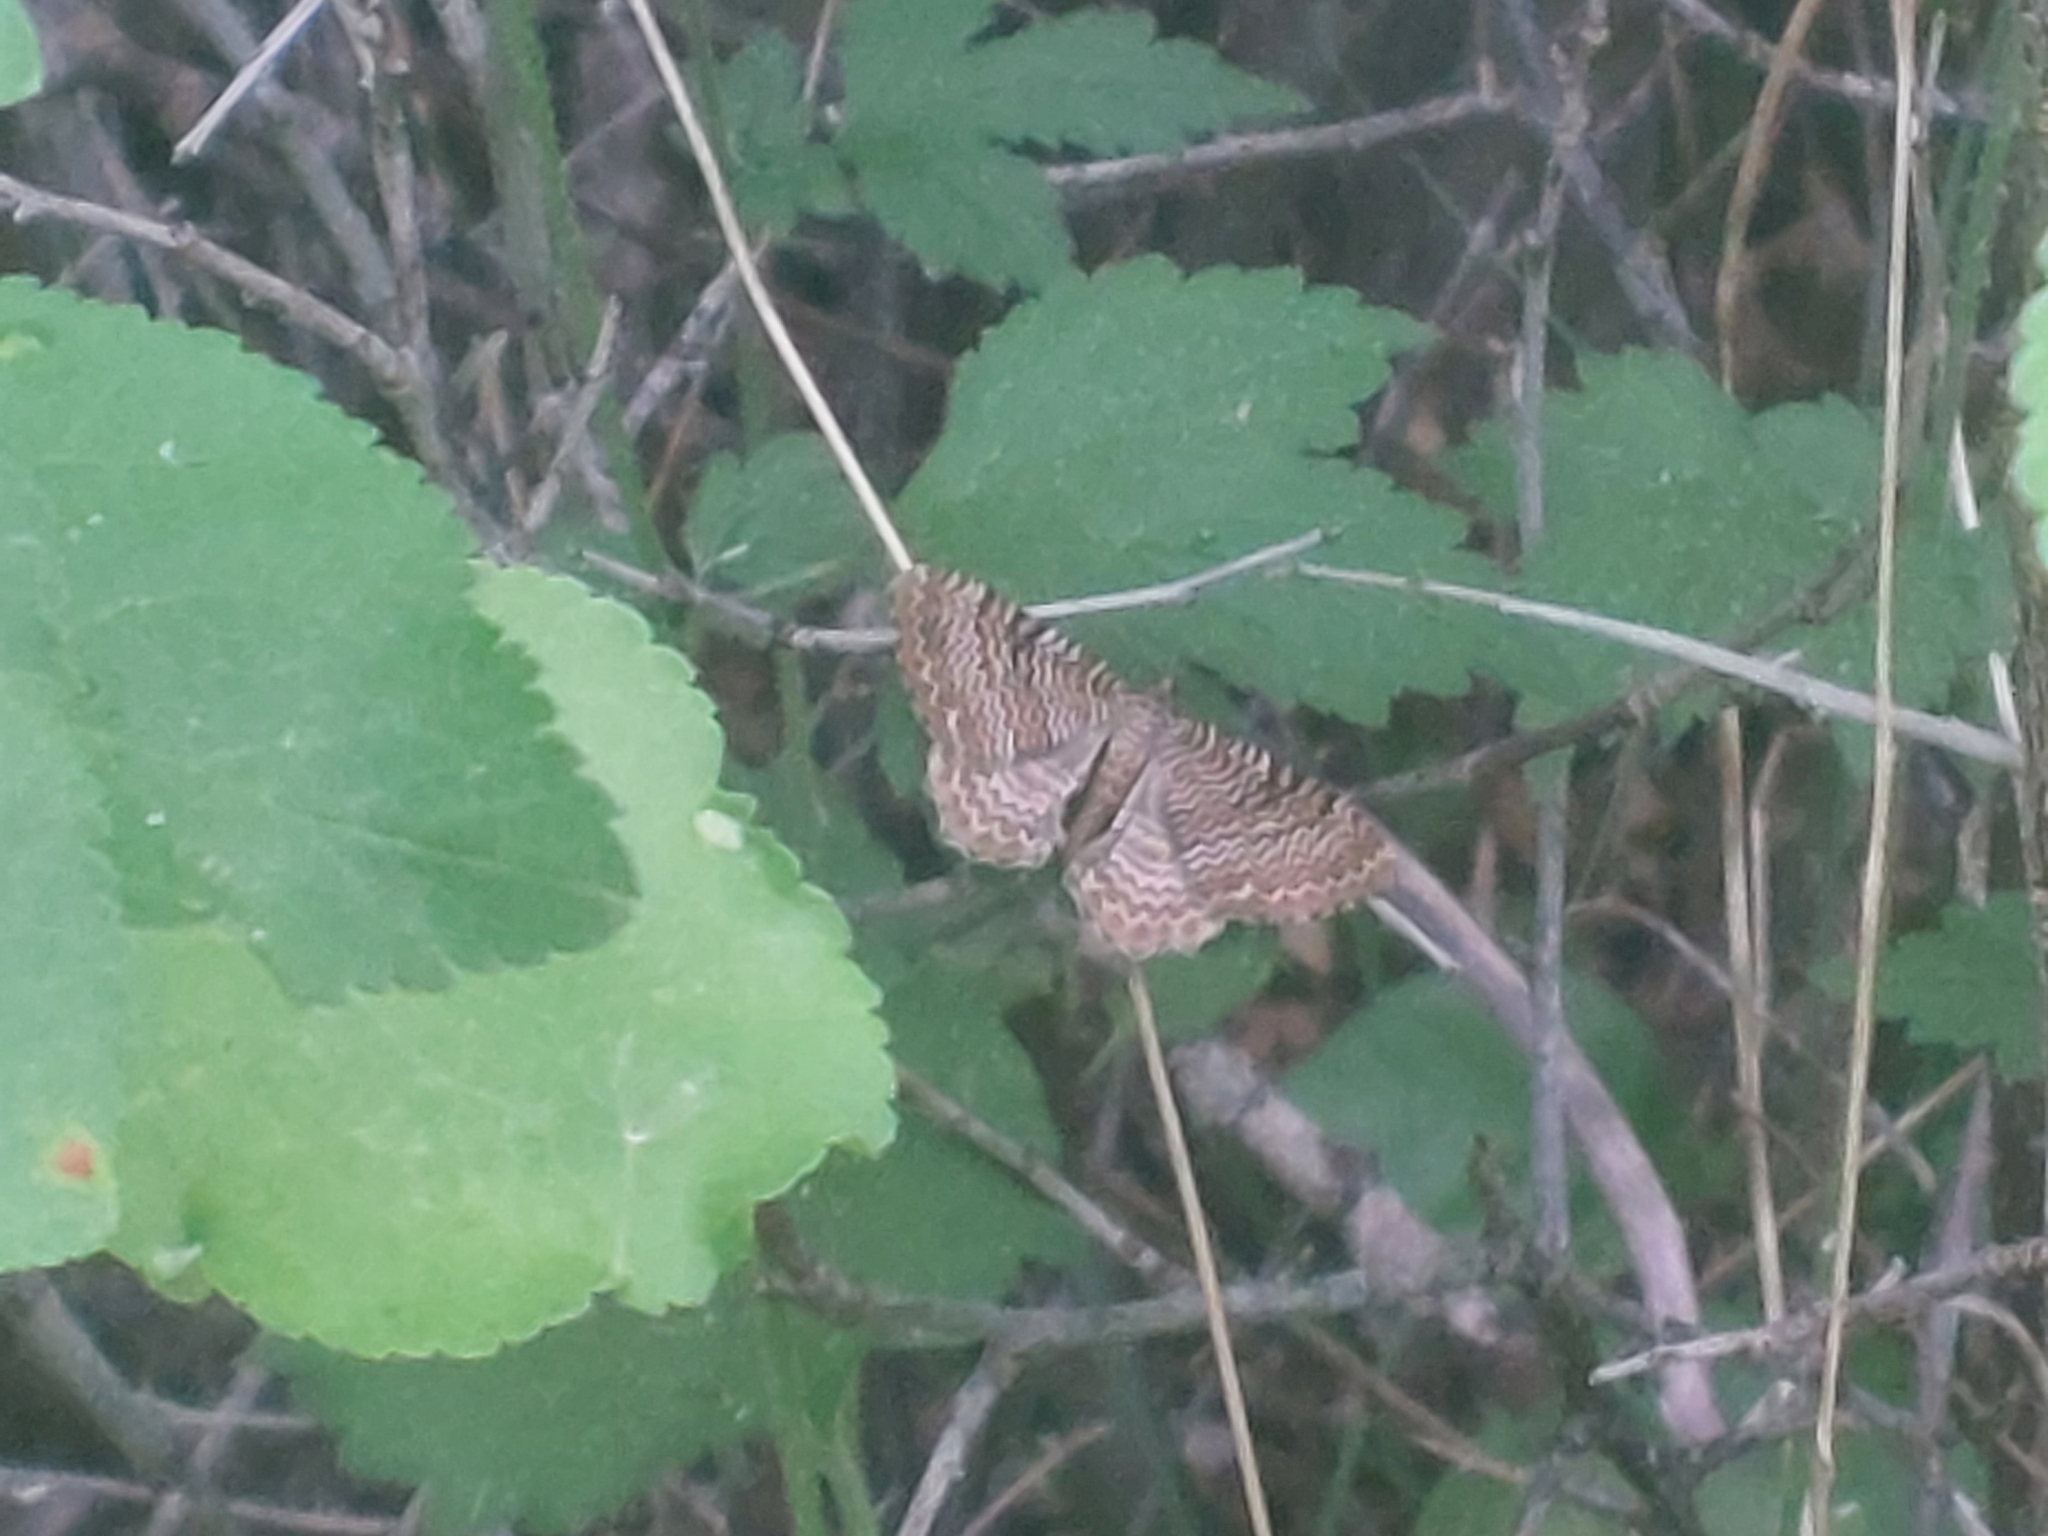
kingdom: Animalia
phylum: Arthropoda
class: Insecta
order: Lepidoptera
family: Geometridae
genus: Rheumaptera
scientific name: Rheumaptera undulata
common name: Scallop shell
